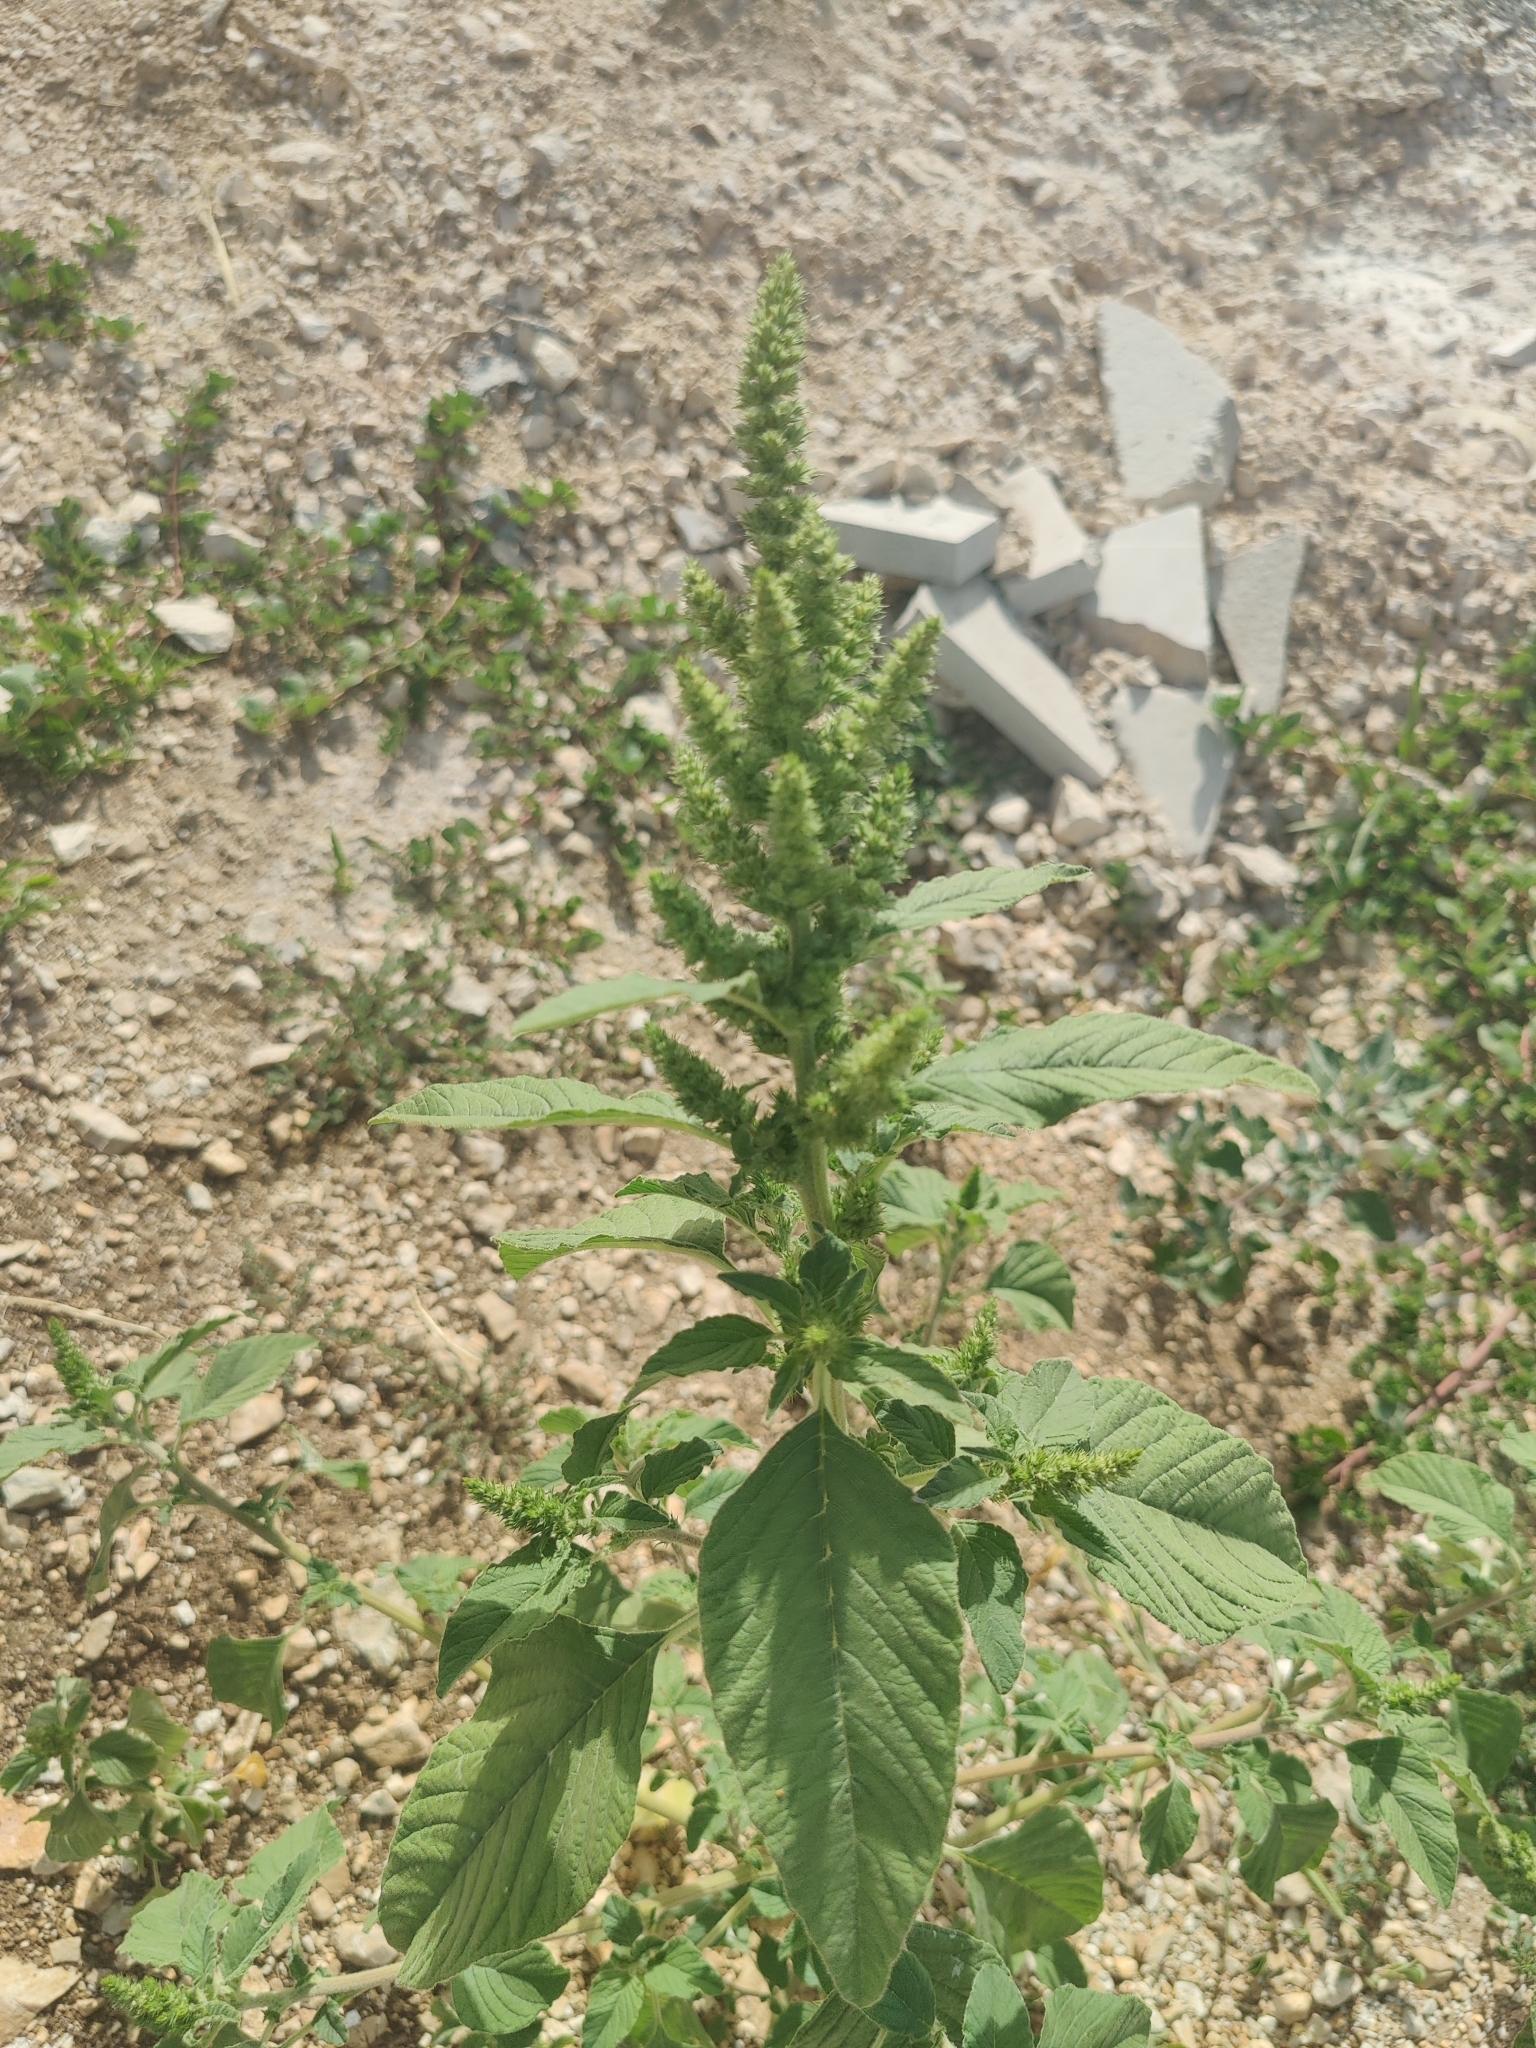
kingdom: Plantae
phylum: Tracheophyta
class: Magnoliopsida
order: Caryophyllales
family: Amaranthaceae
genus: Amaranthus
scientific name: Amaranthus retroflexus
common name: Redroot amaranth
